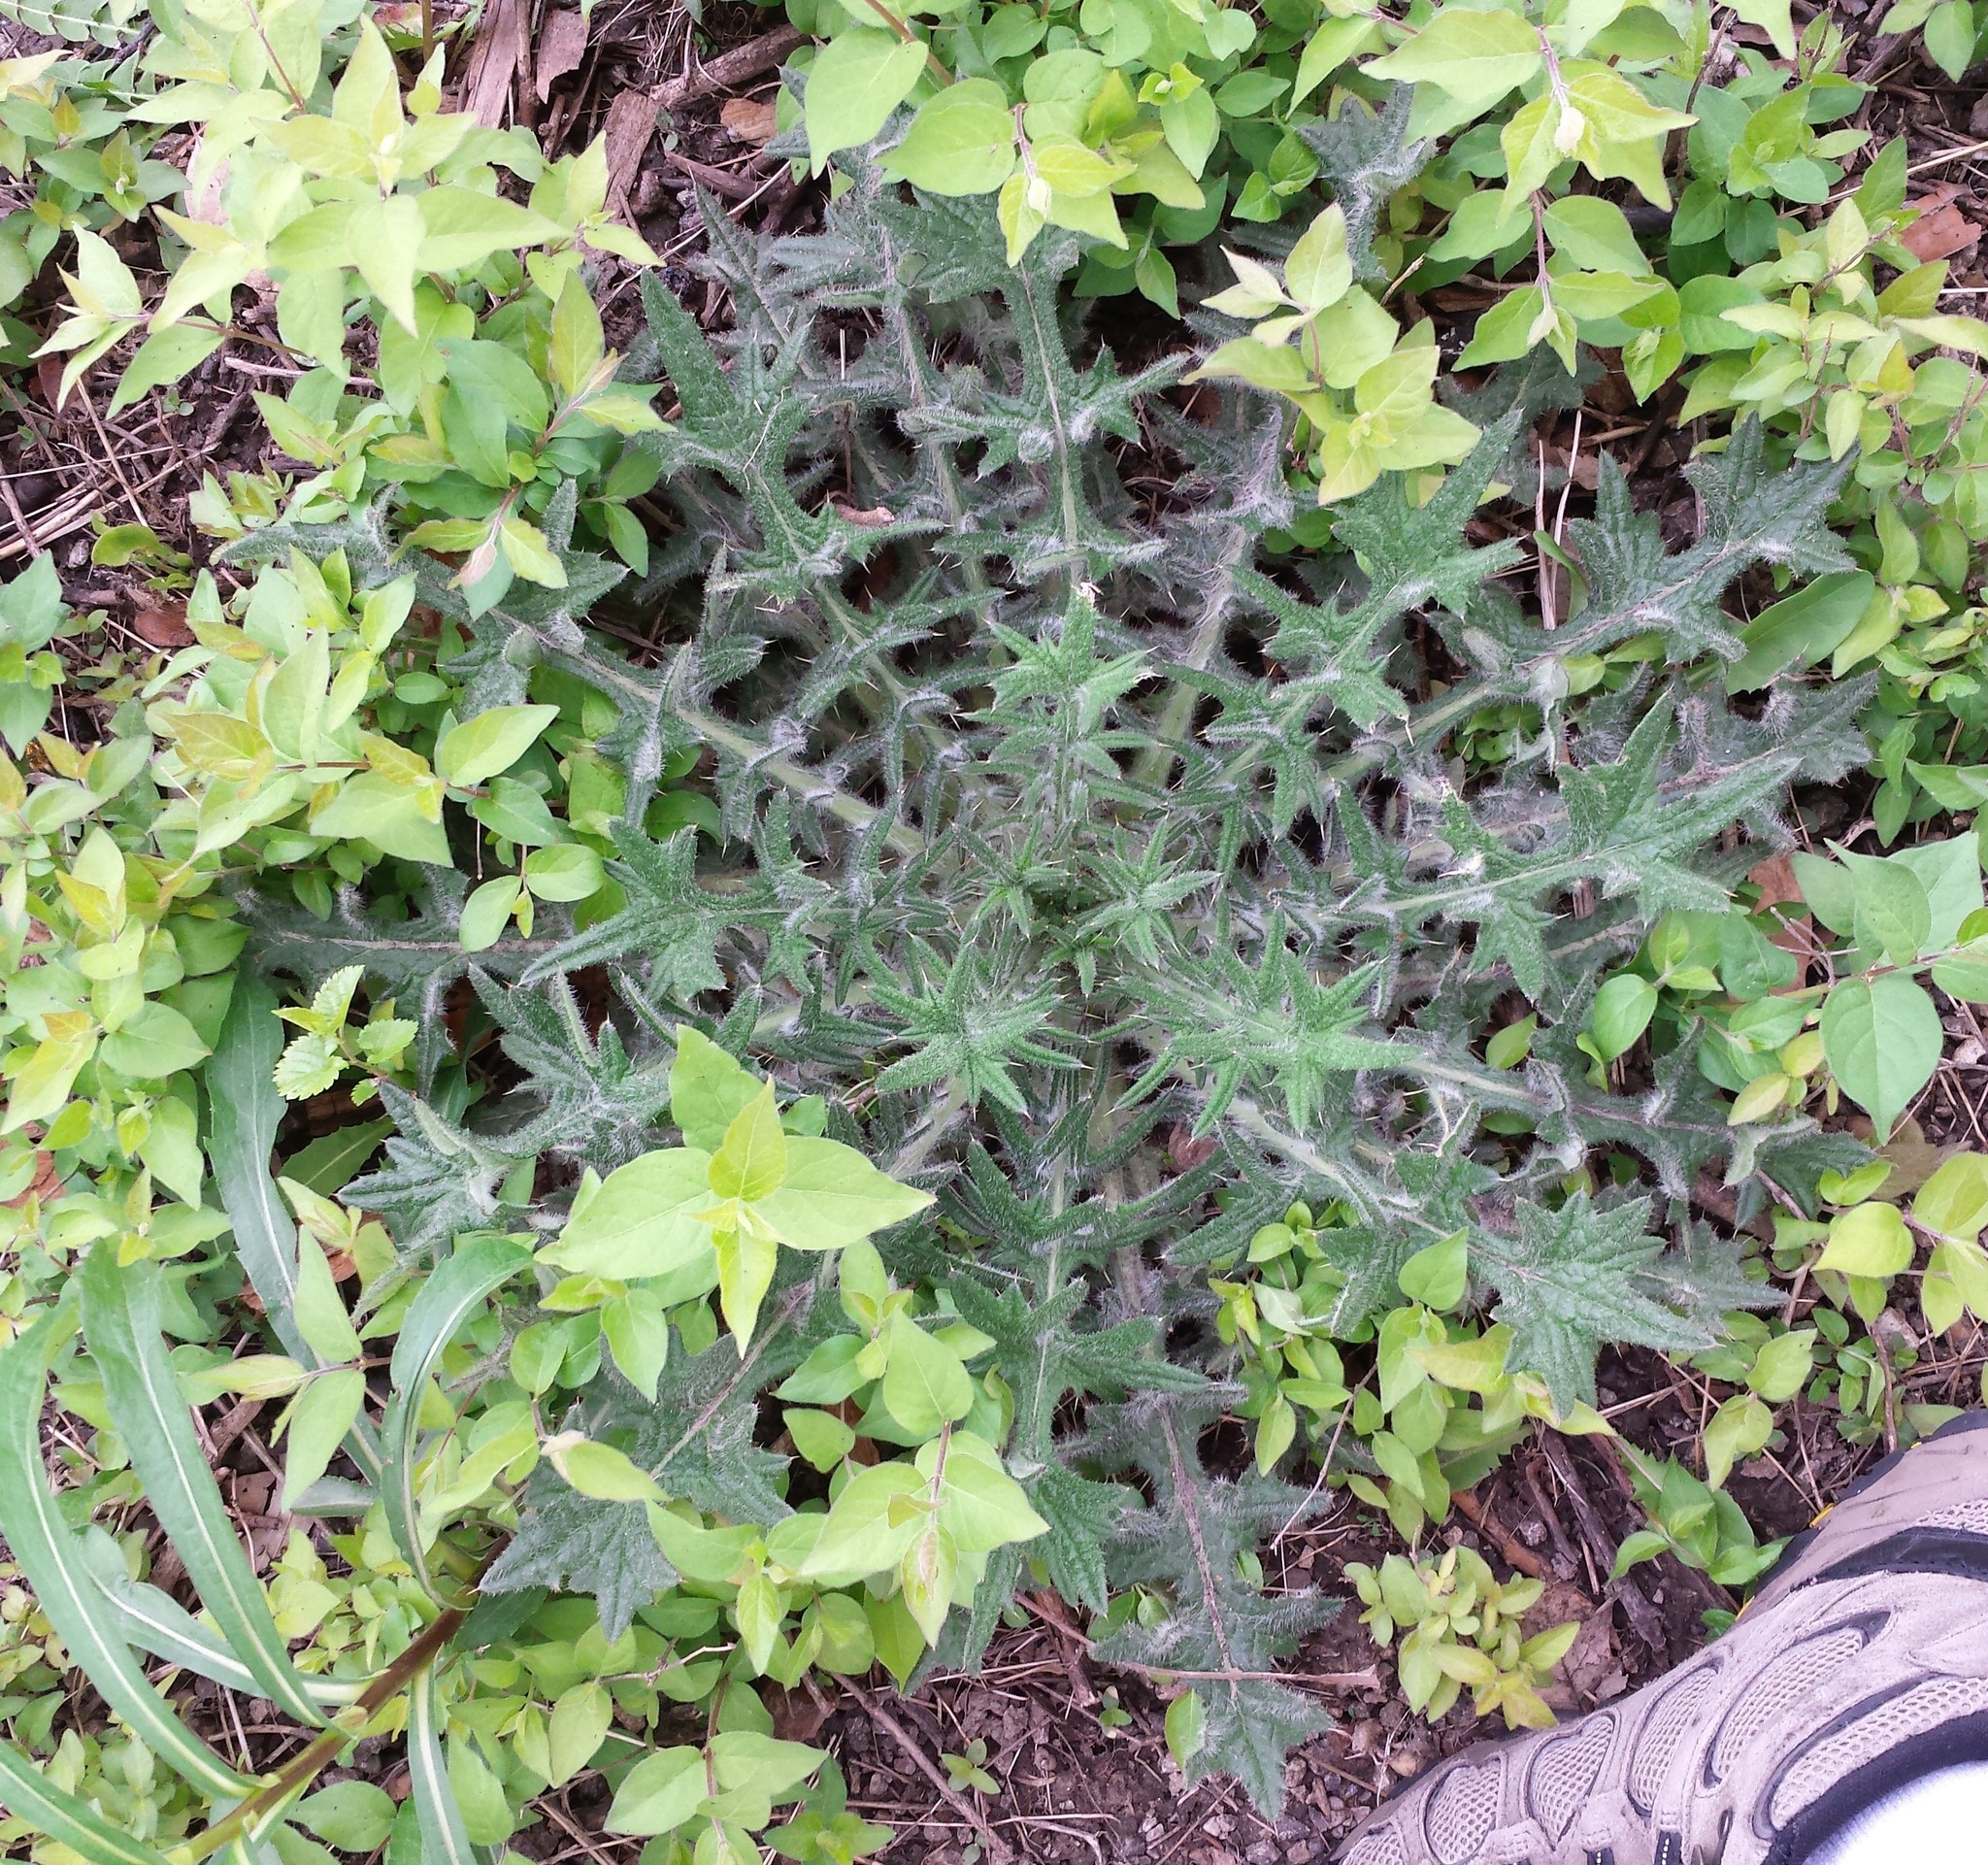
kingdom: Plantae
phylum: Tracheophyta
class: Magnoliopsida
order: Asterales
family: Asteraceae
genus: Cirsium
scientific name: Cirsium vulgare
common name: Bull thistle
